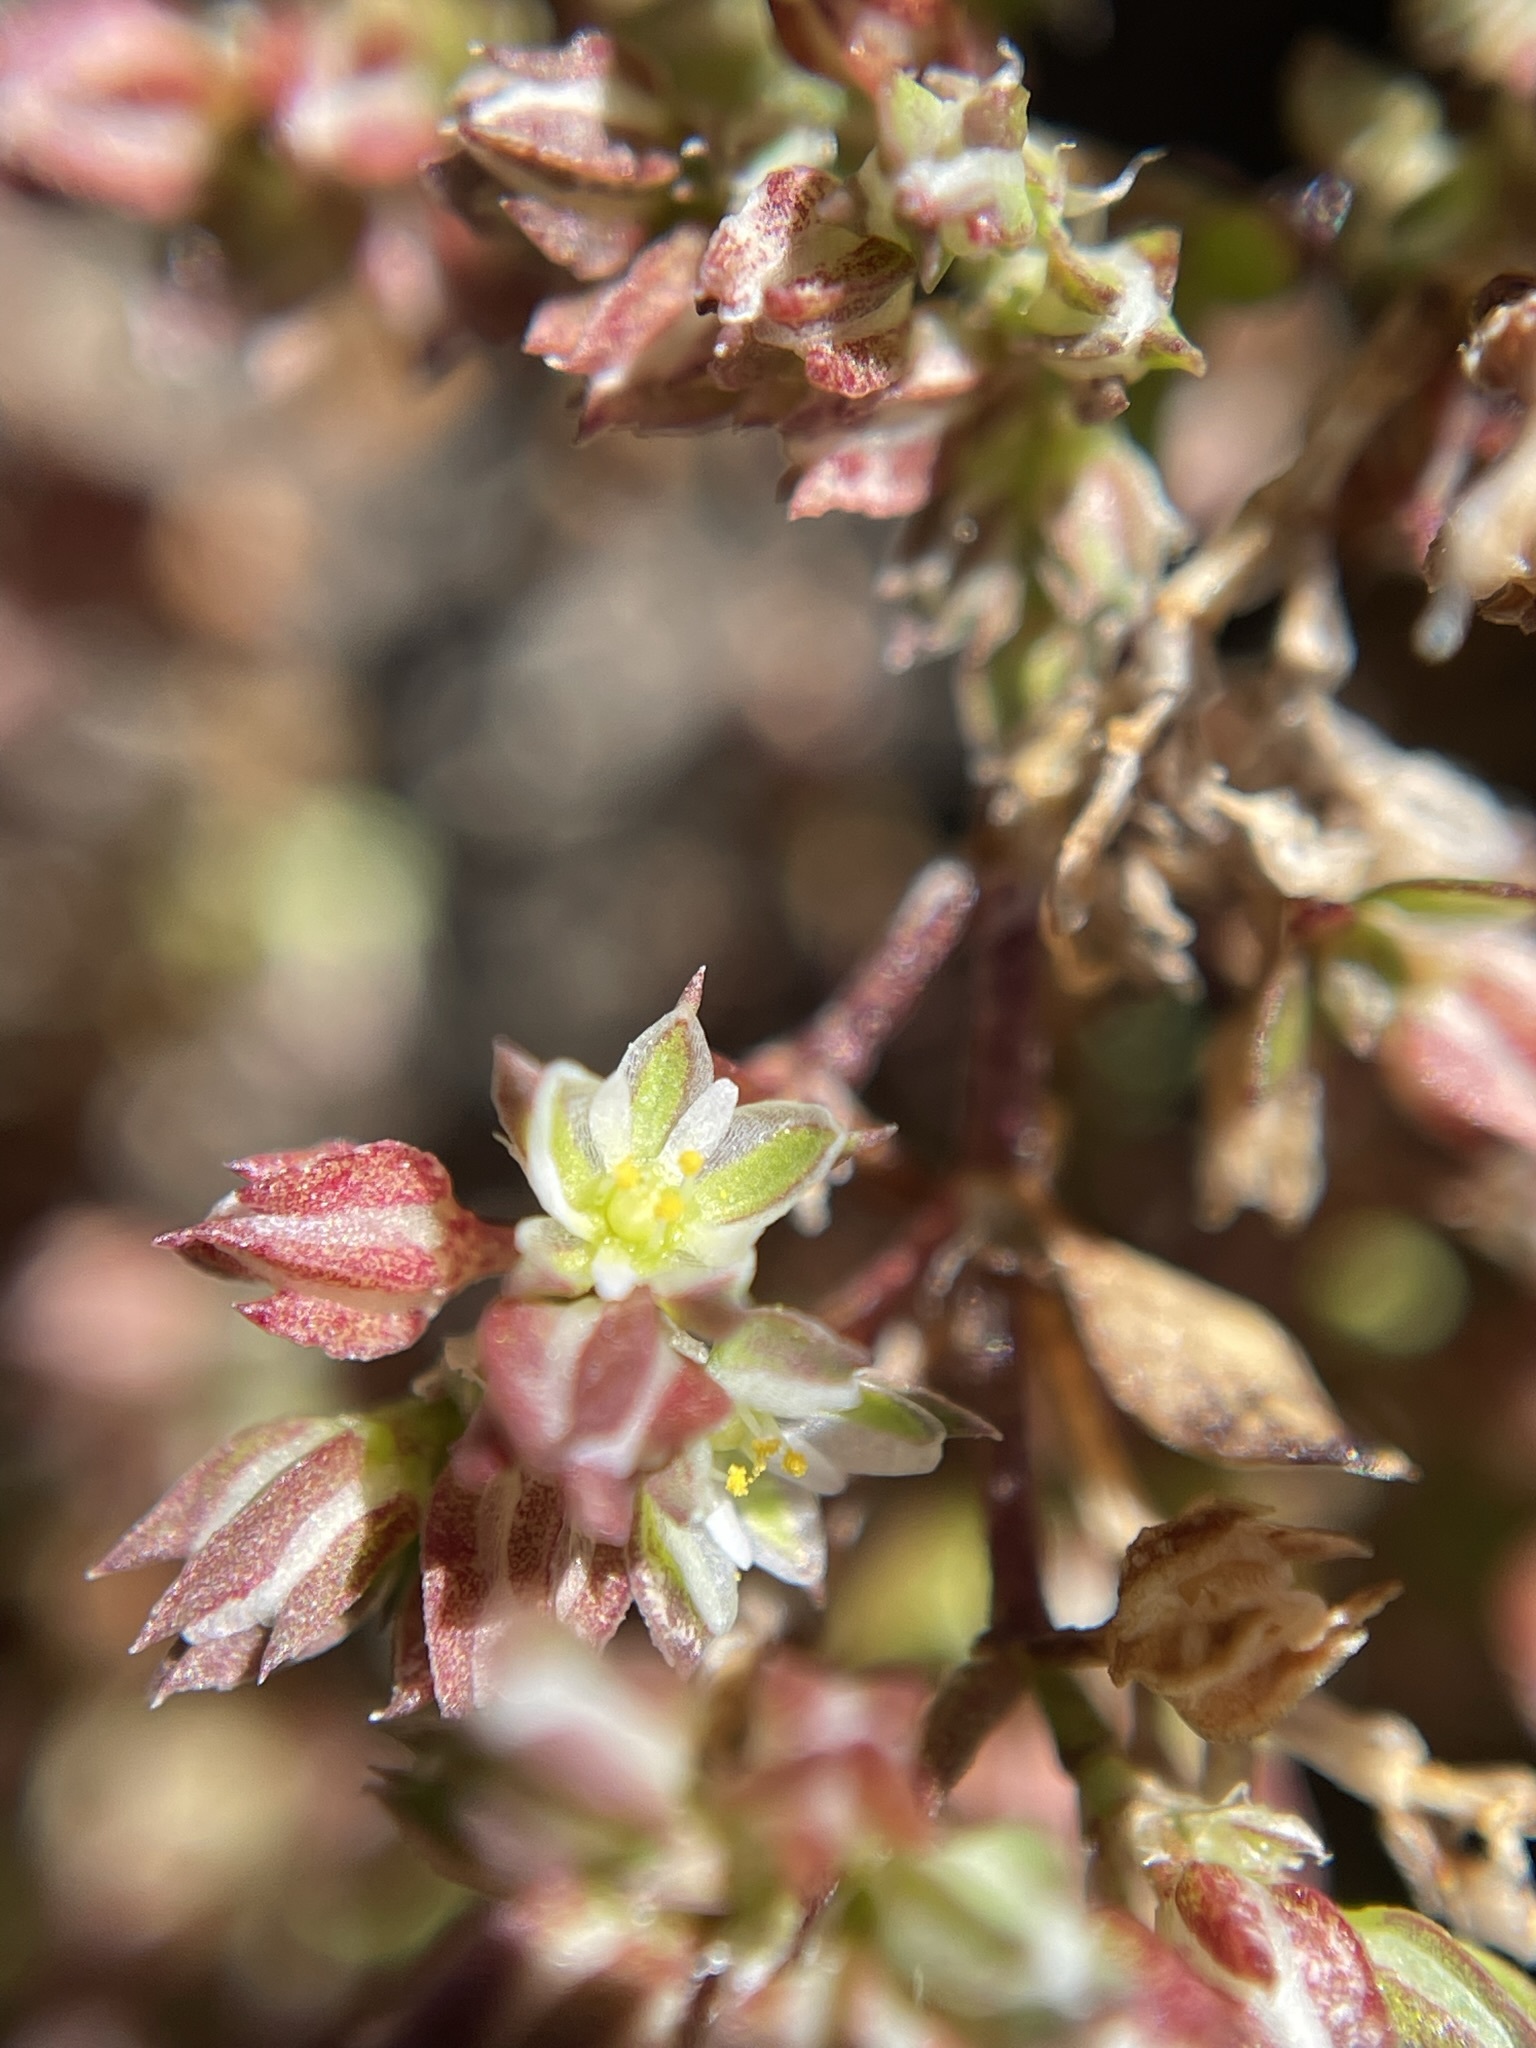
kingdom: Plantae
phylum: Tracheophyta
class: Magnoliopsida
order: Caryophyllales
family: Caryophyllaceae
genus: Polycarpon
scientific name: Polycarpon tetraphyllum
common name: Four-leaved all-seed
